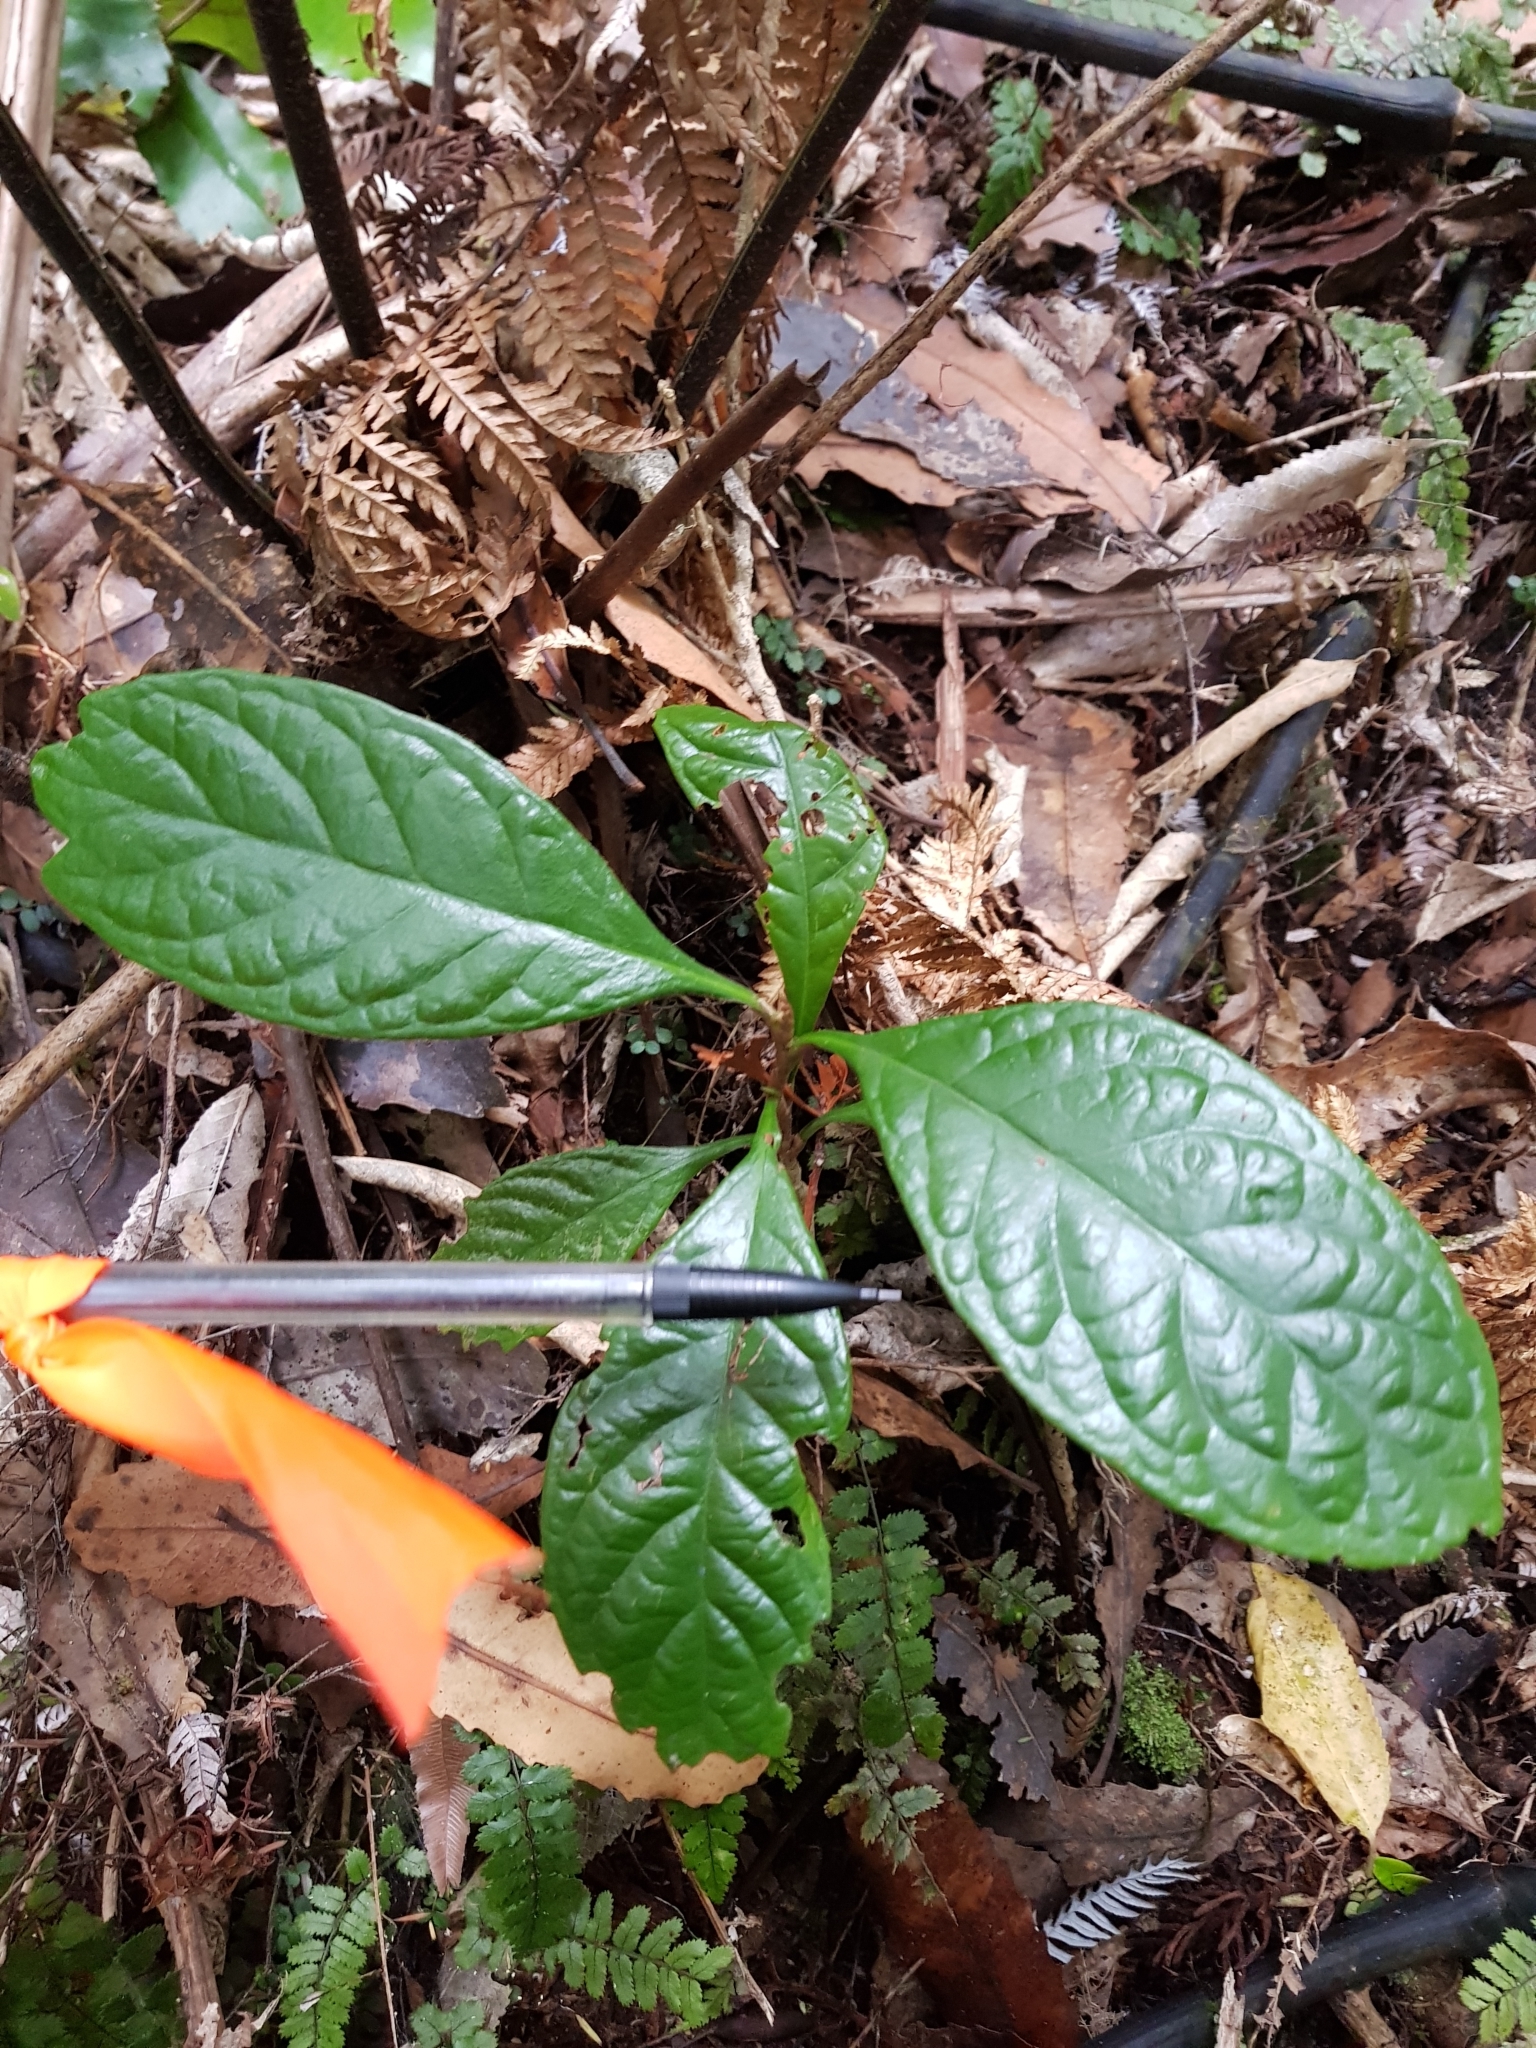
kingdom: Plantae
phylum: Tracheophyta
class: Magnoliopsida
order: Rosales
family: Rosaceae
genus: Rhaphiolepis
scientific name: Rhaphiolepis bibas
